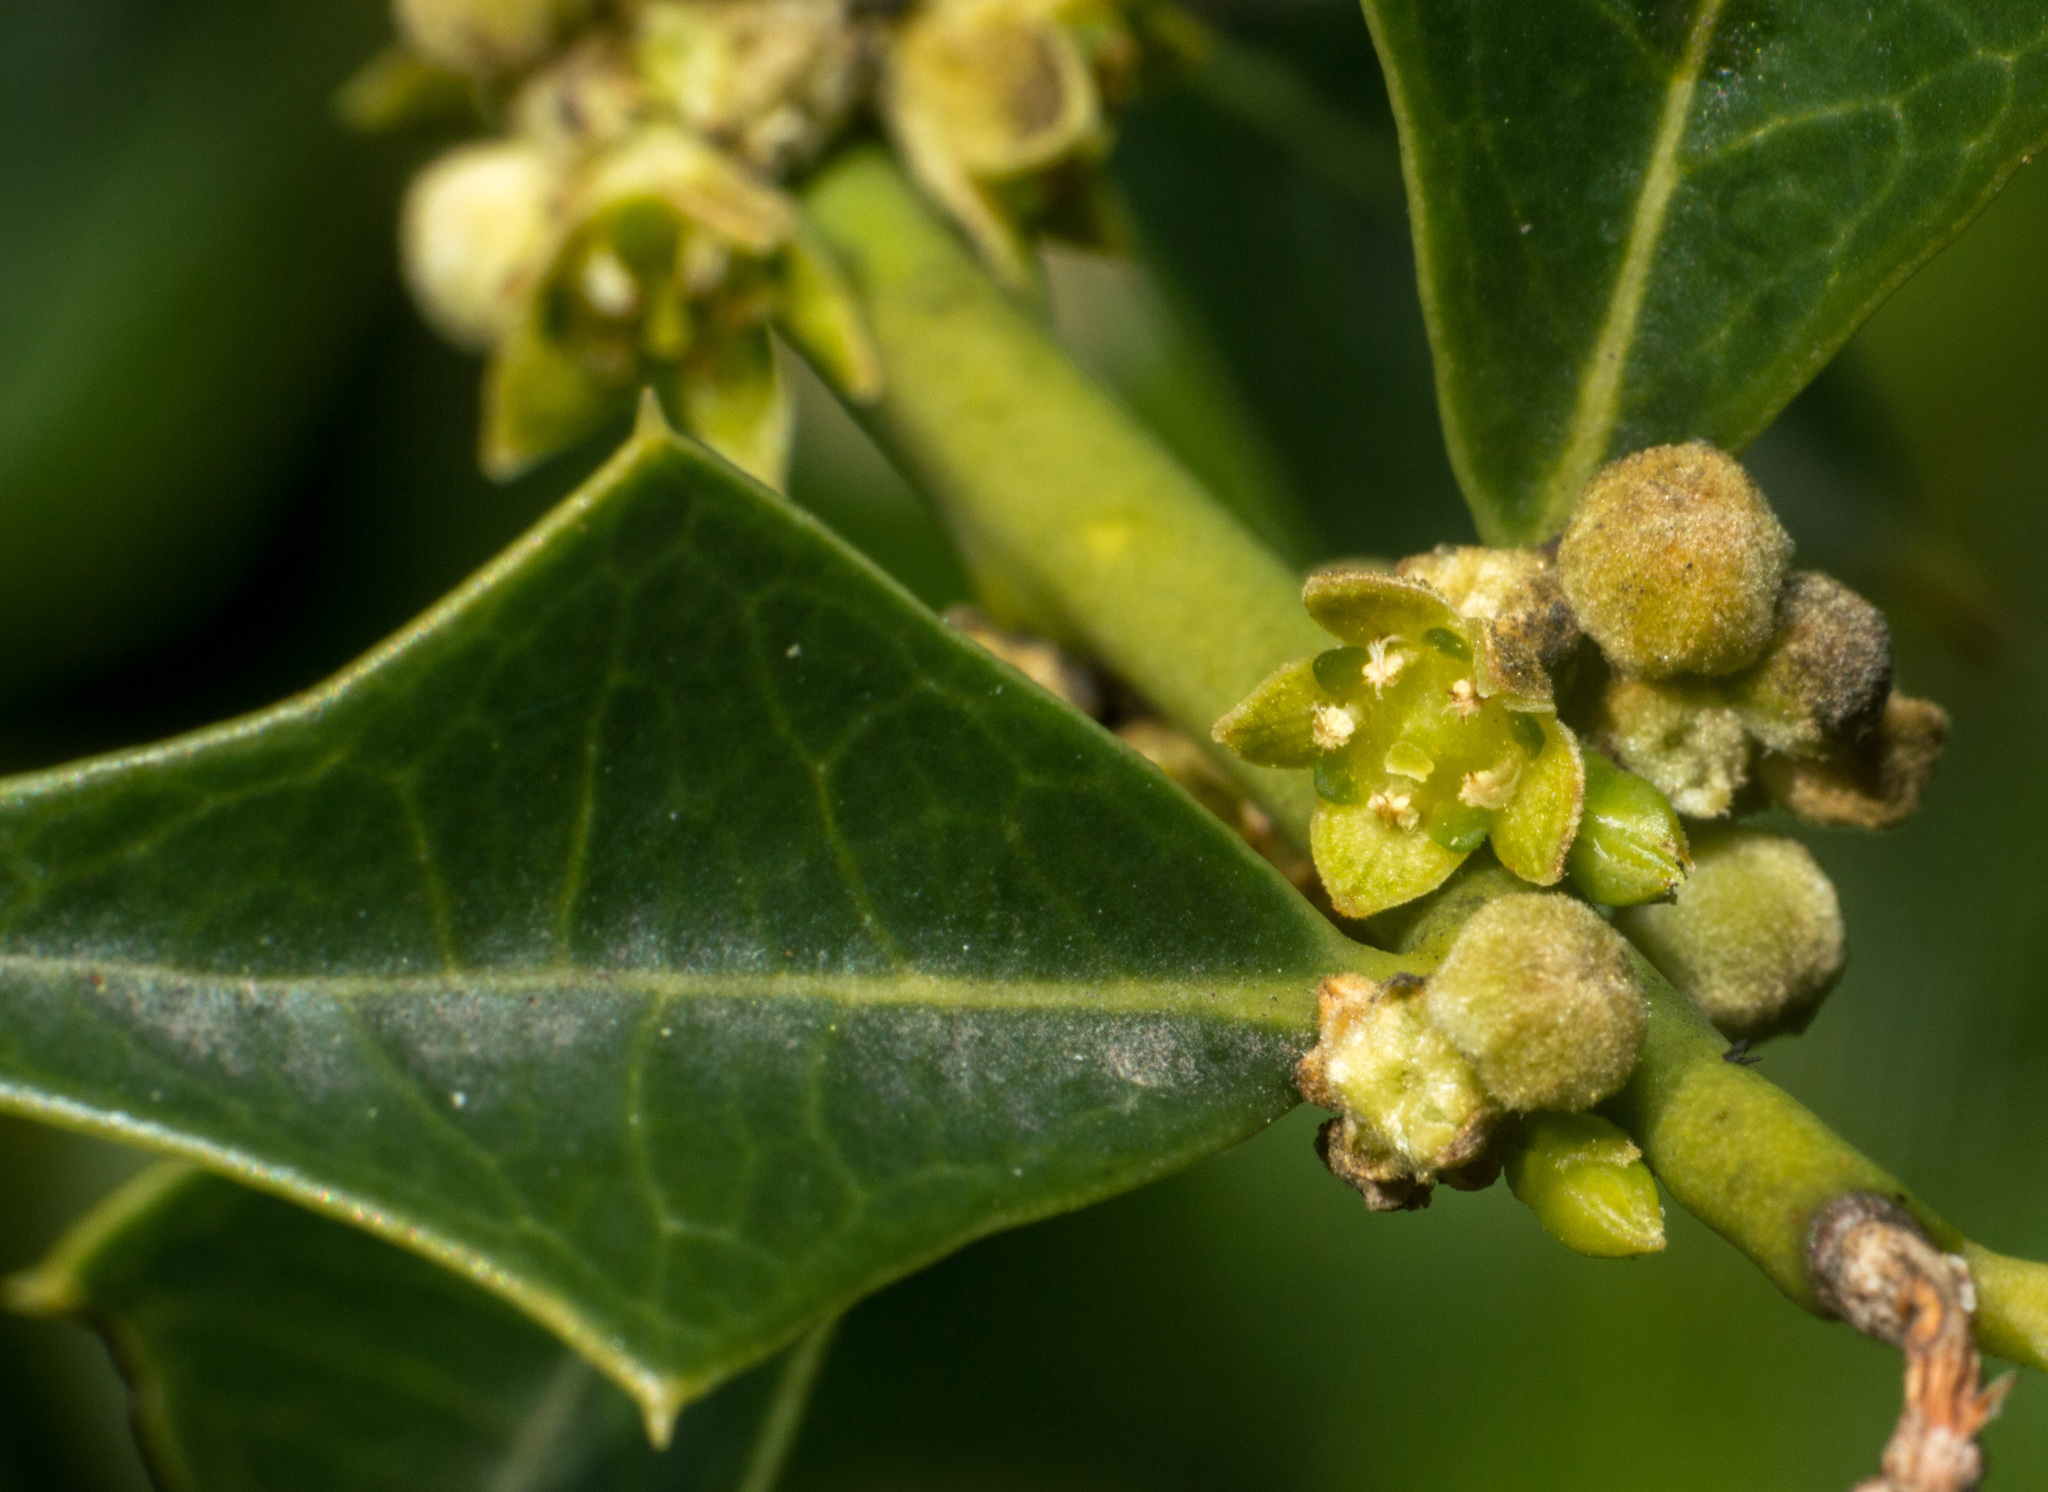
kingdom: Plantae
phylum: Tracheophyta
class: Magnoliopsida
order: Santalales
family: Cervantesiaceae
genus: Jodina
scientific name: Jodina rhombifolia
